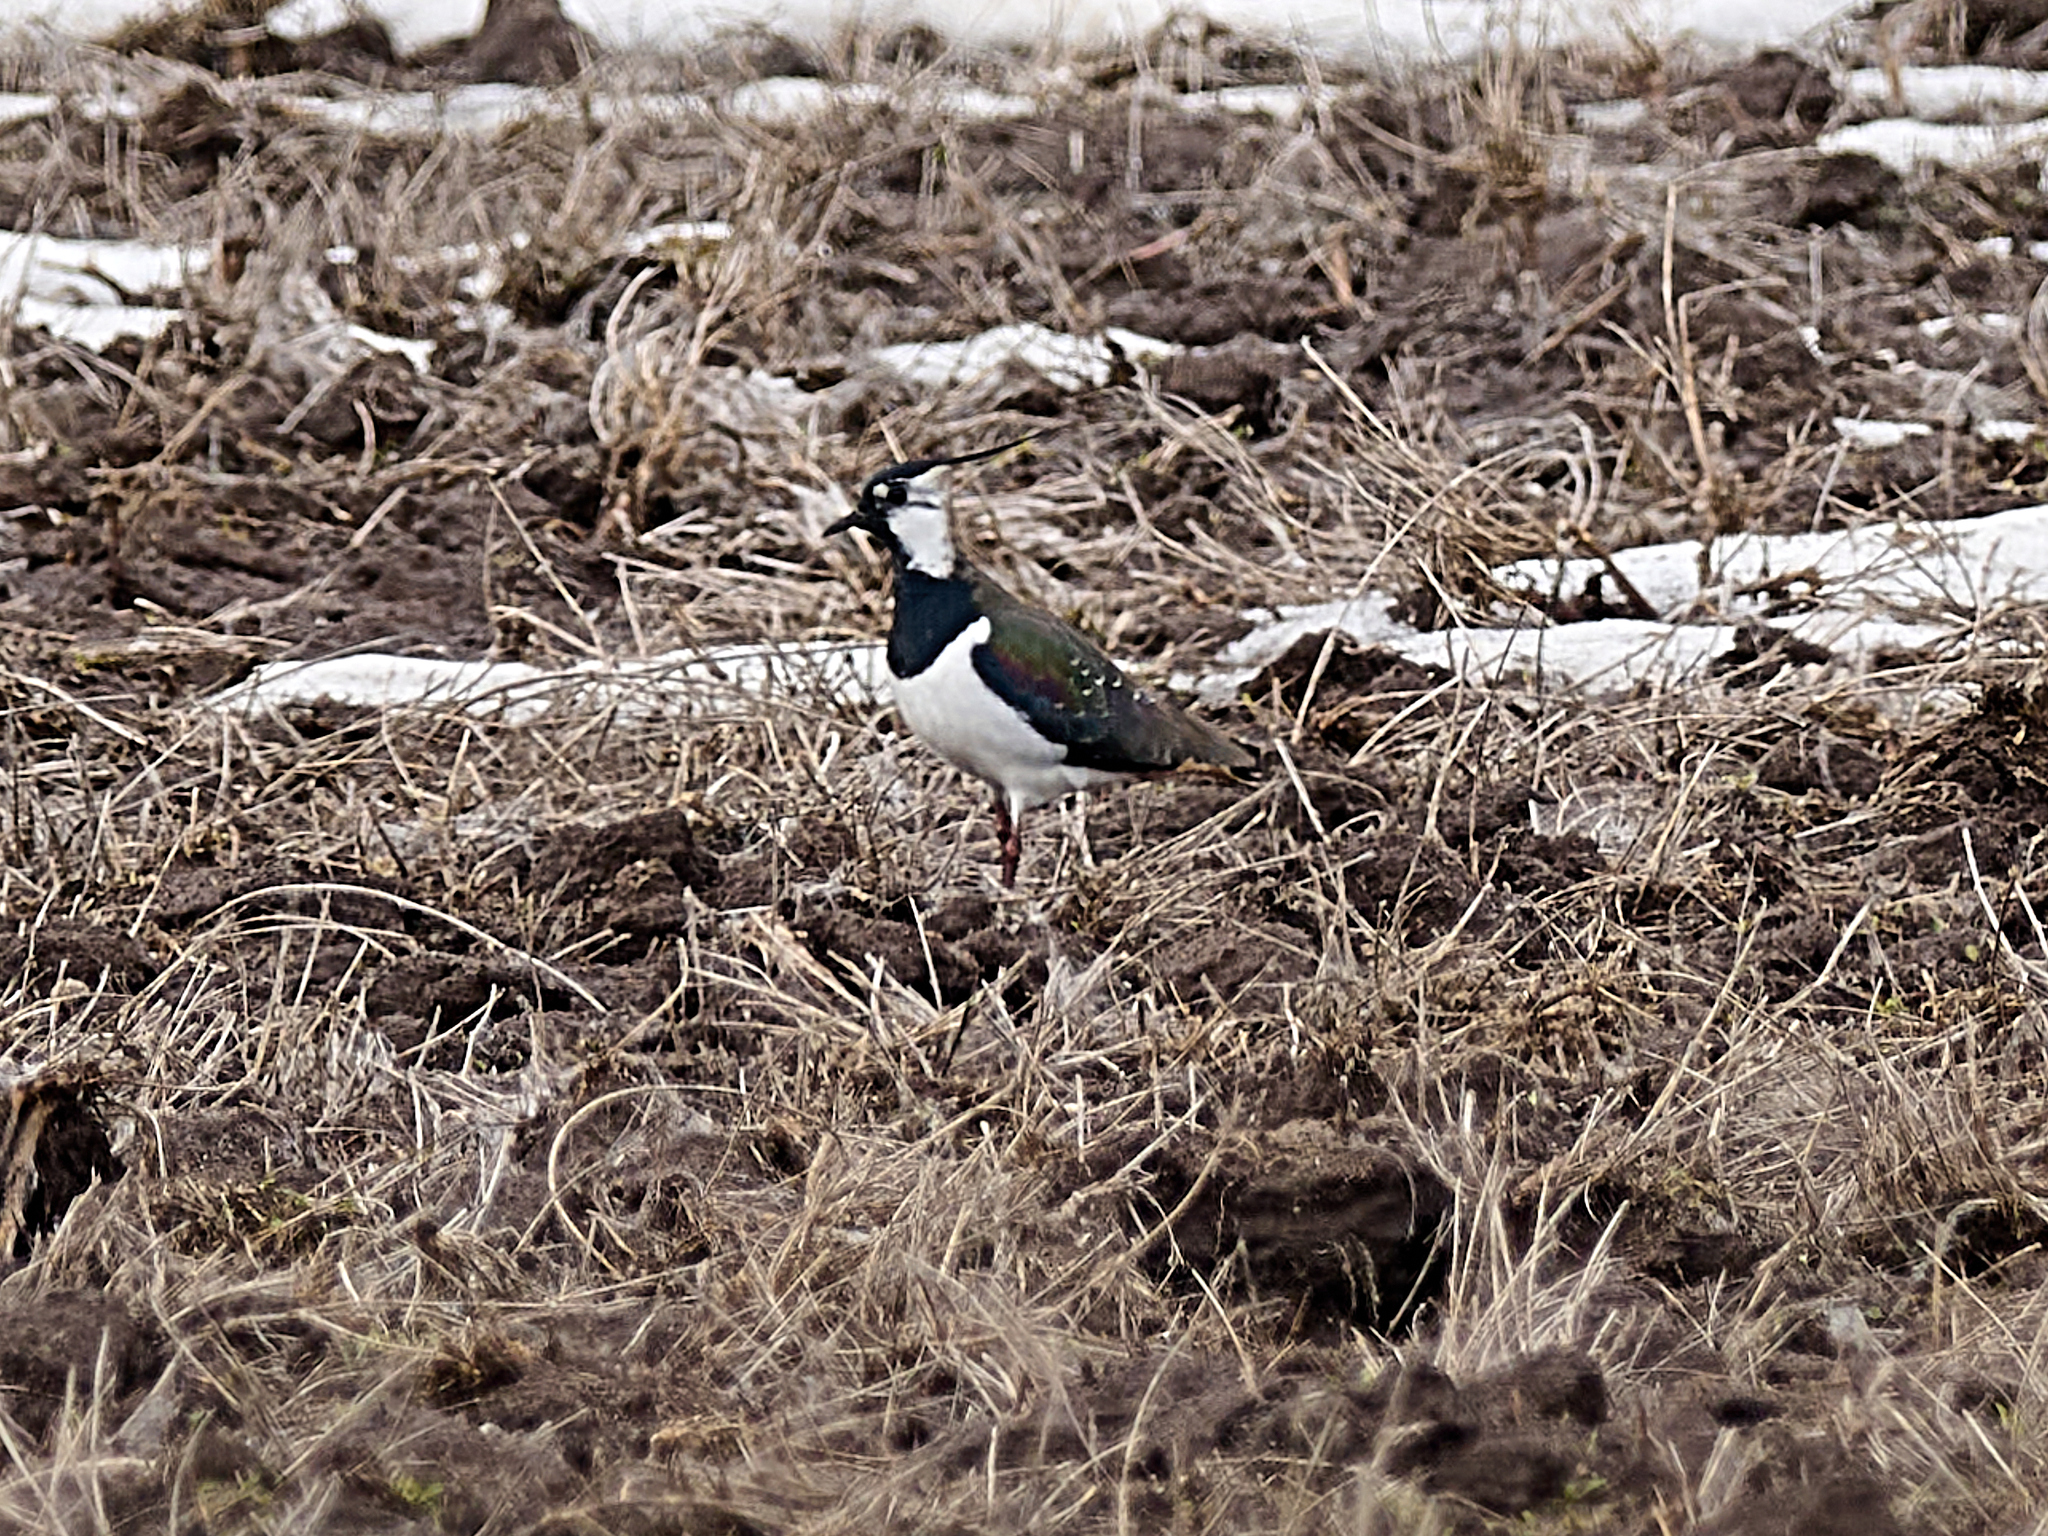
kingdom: Animalia
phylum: Chordata
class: Aves
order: Charadriiformes
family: Charadriidae
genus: Vanellus
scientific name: Vanellus vanellus
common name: Northern lapwing
